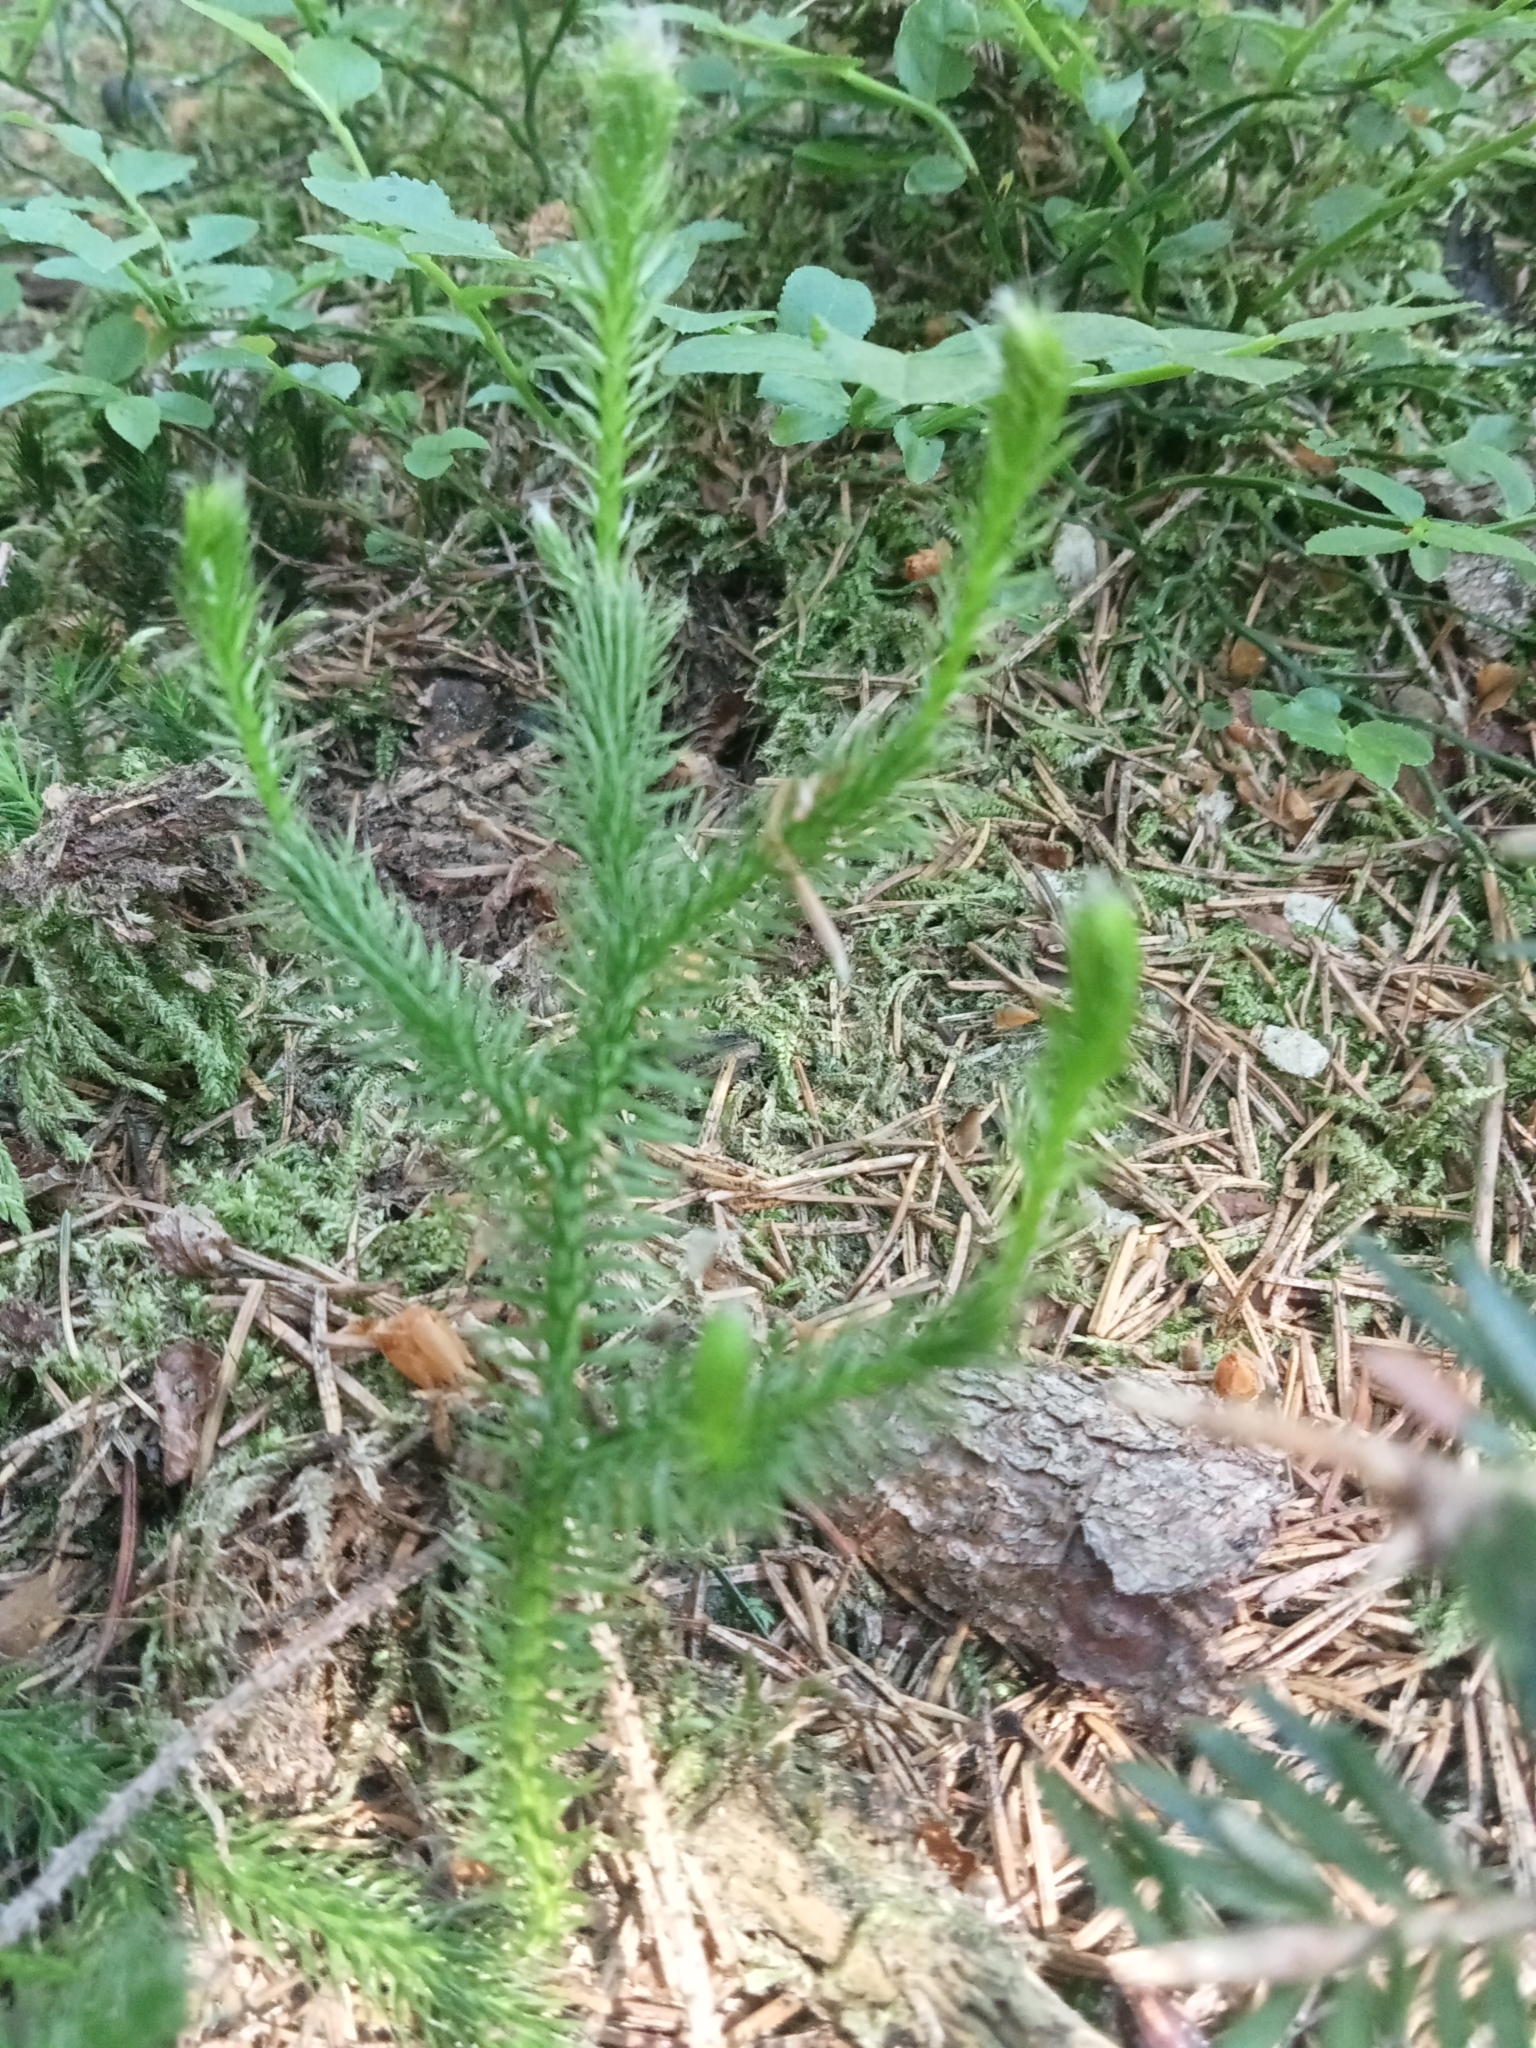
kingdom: Plantae
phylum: Tracheophyta
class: Lycopodiopsida
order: Lycopodiales
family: Lycopodiaceae
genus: Lycopodium
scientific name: Lycopodium clavatum
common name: Stag's-horn clubmoss
